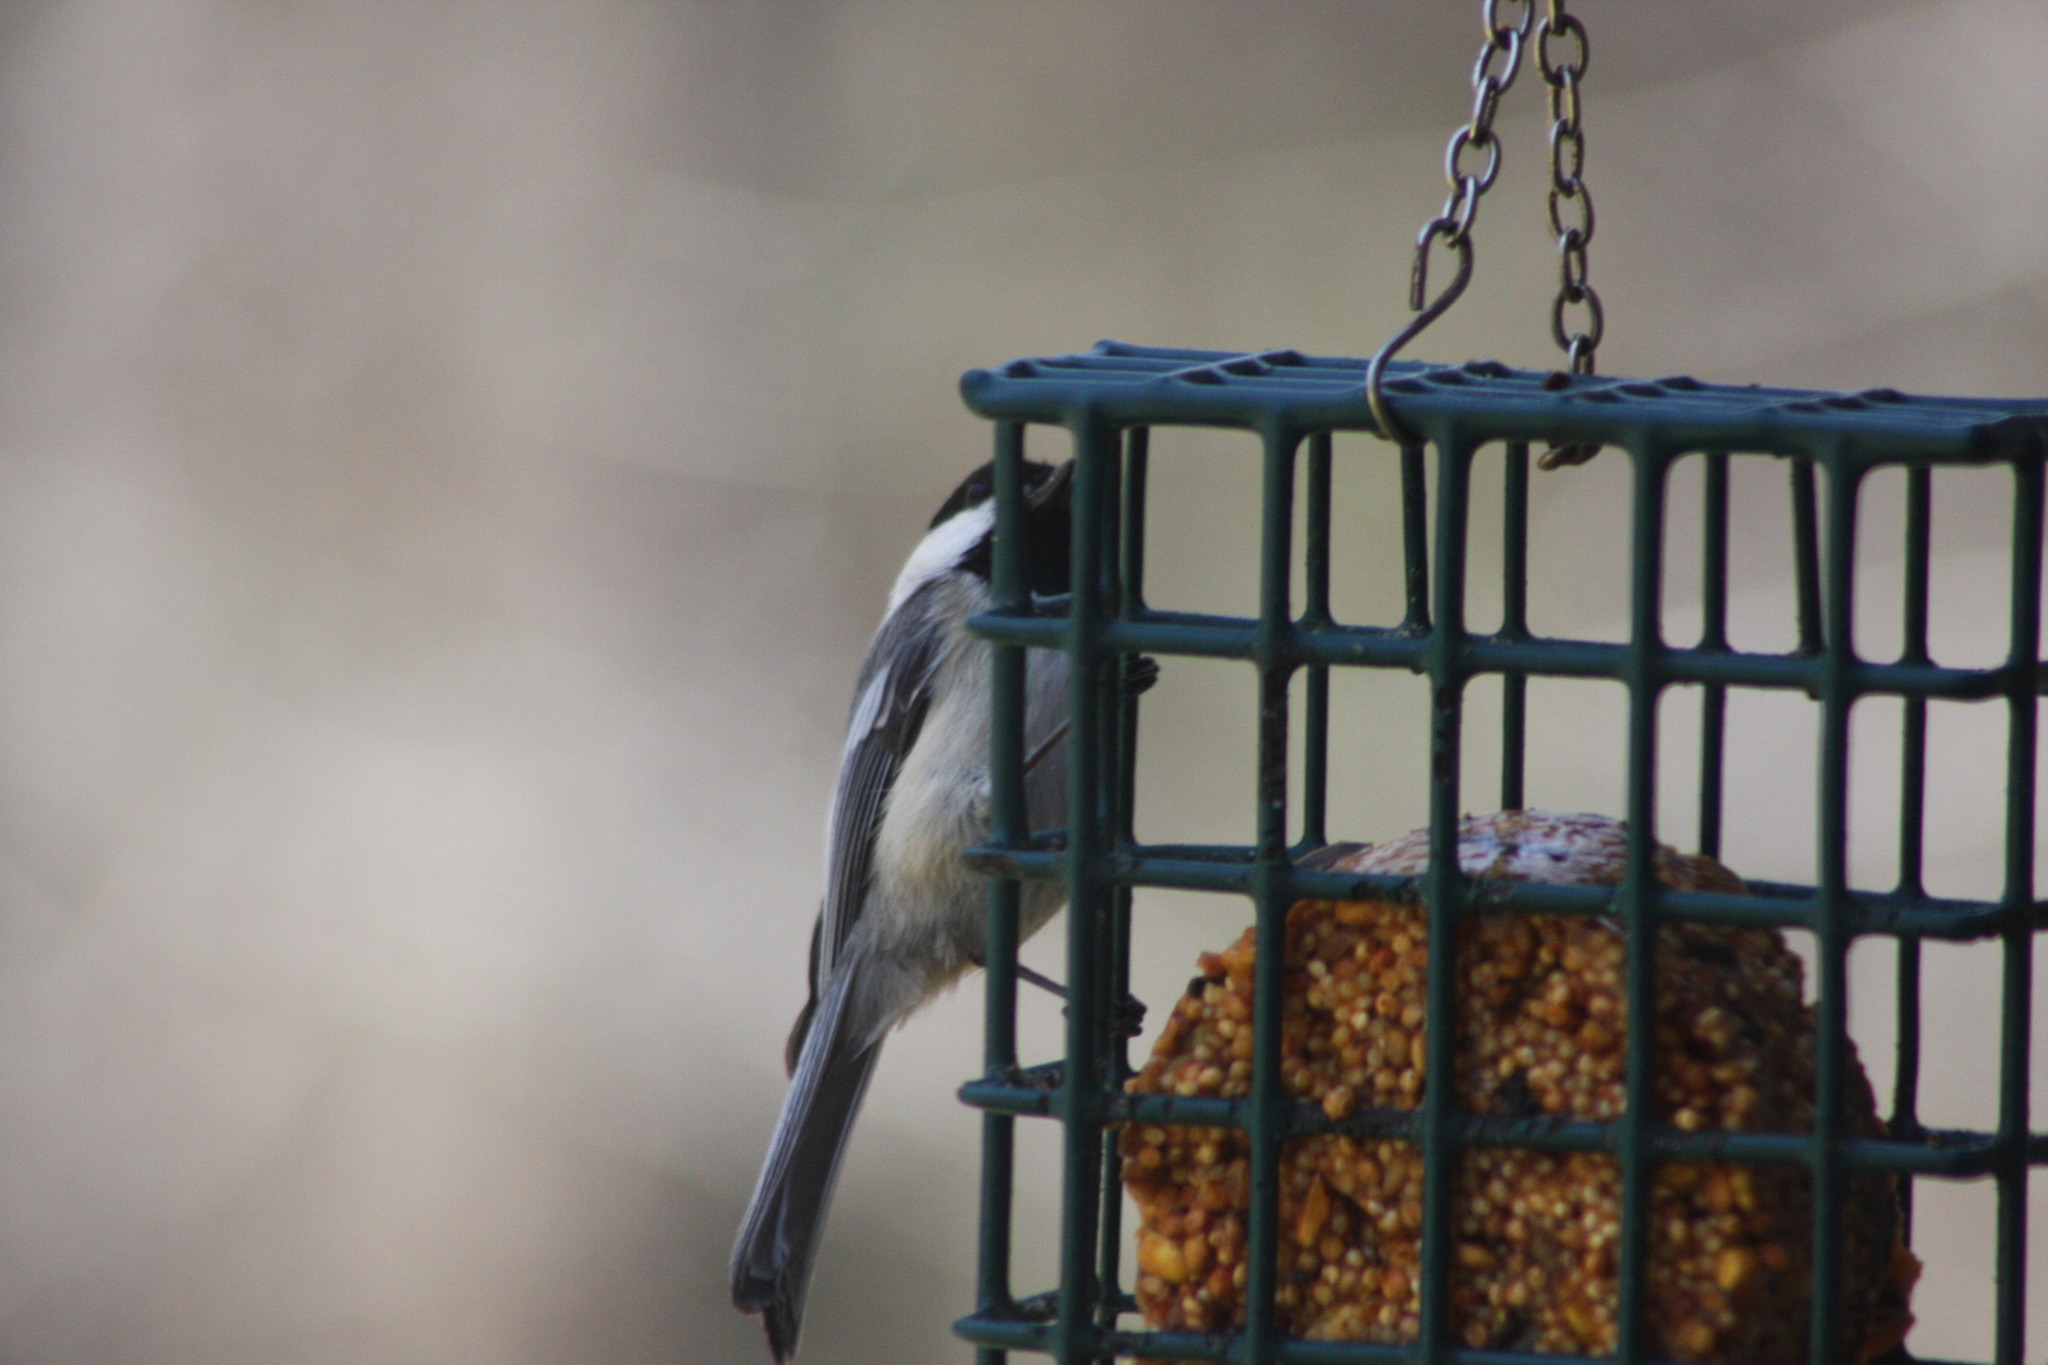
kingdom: Animalia
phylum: Chordata
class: Aves
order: Passeriformes
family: Paridae
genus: Poecile
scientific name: Poecile atricapillus
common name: Black-capped chickadee
